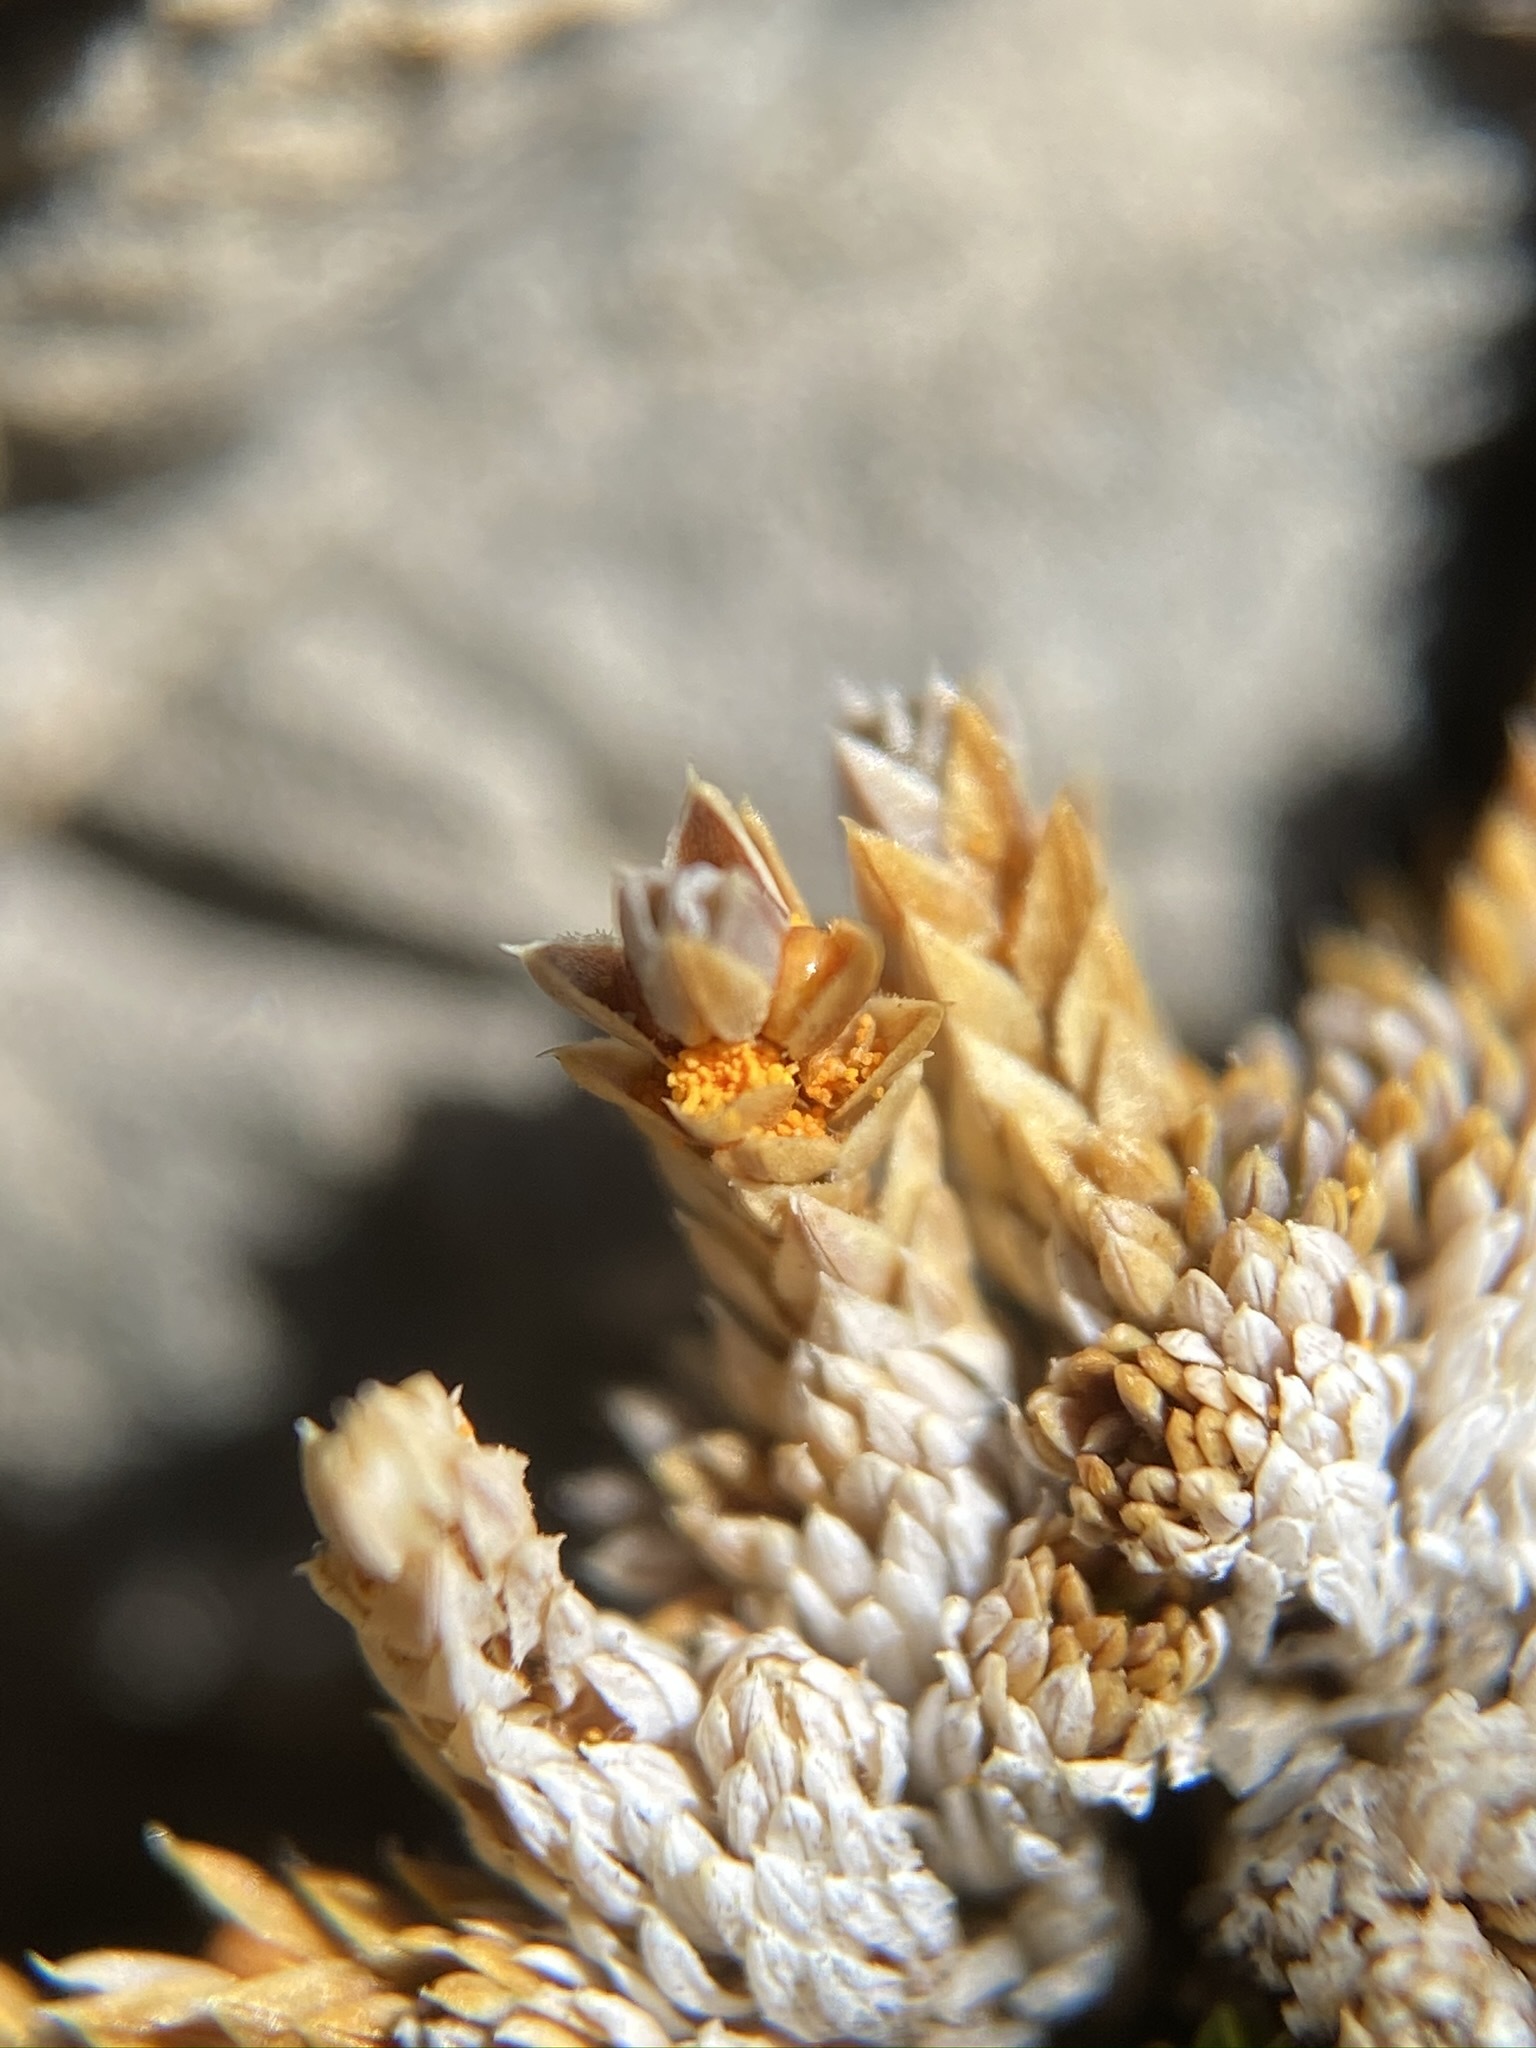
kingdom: Plantae
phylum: Tracheophyta
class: Lycopodiopsida
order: Selaginellales
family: Selaginellaceae
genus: Selaginella
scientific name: Selaginella leucobryoides
